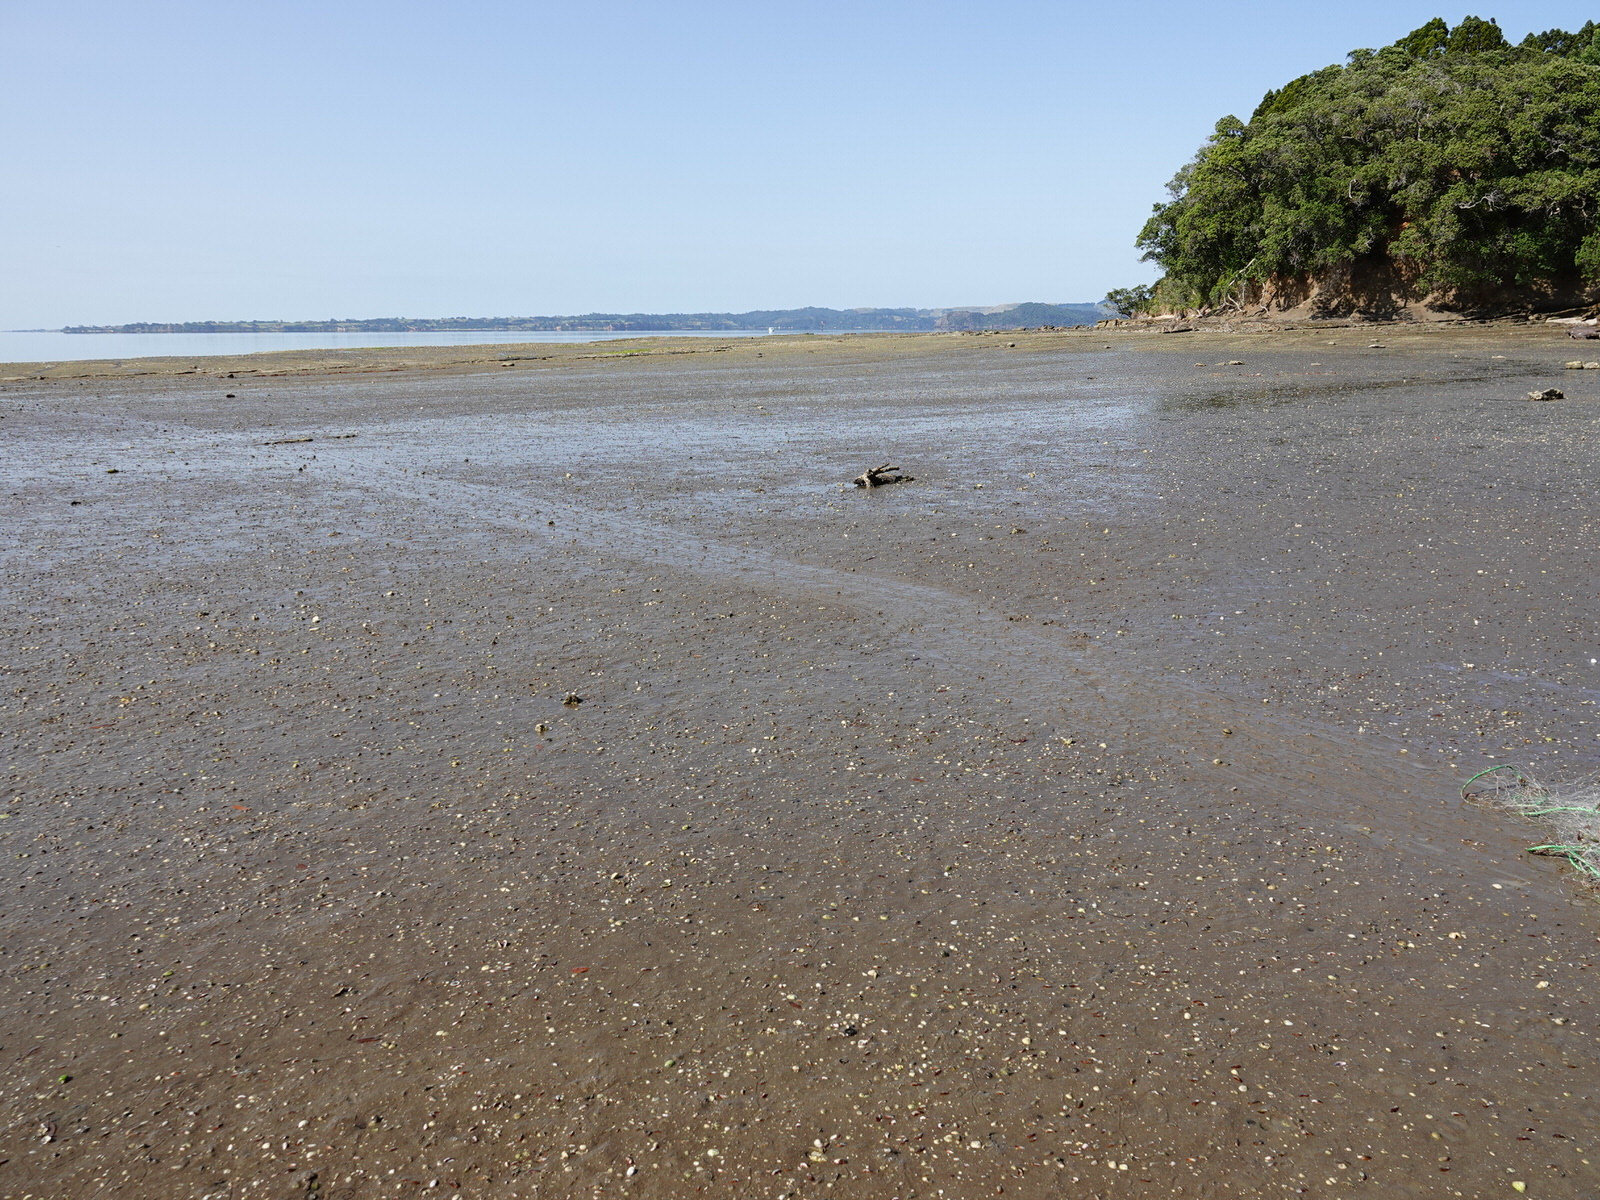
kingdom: Animalia
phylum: Mollusca
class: Bivalvia
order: Mytilida
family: Mytilidae
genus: Arcuatula
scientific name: Arcuatula senhousia
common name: Asian mussel
